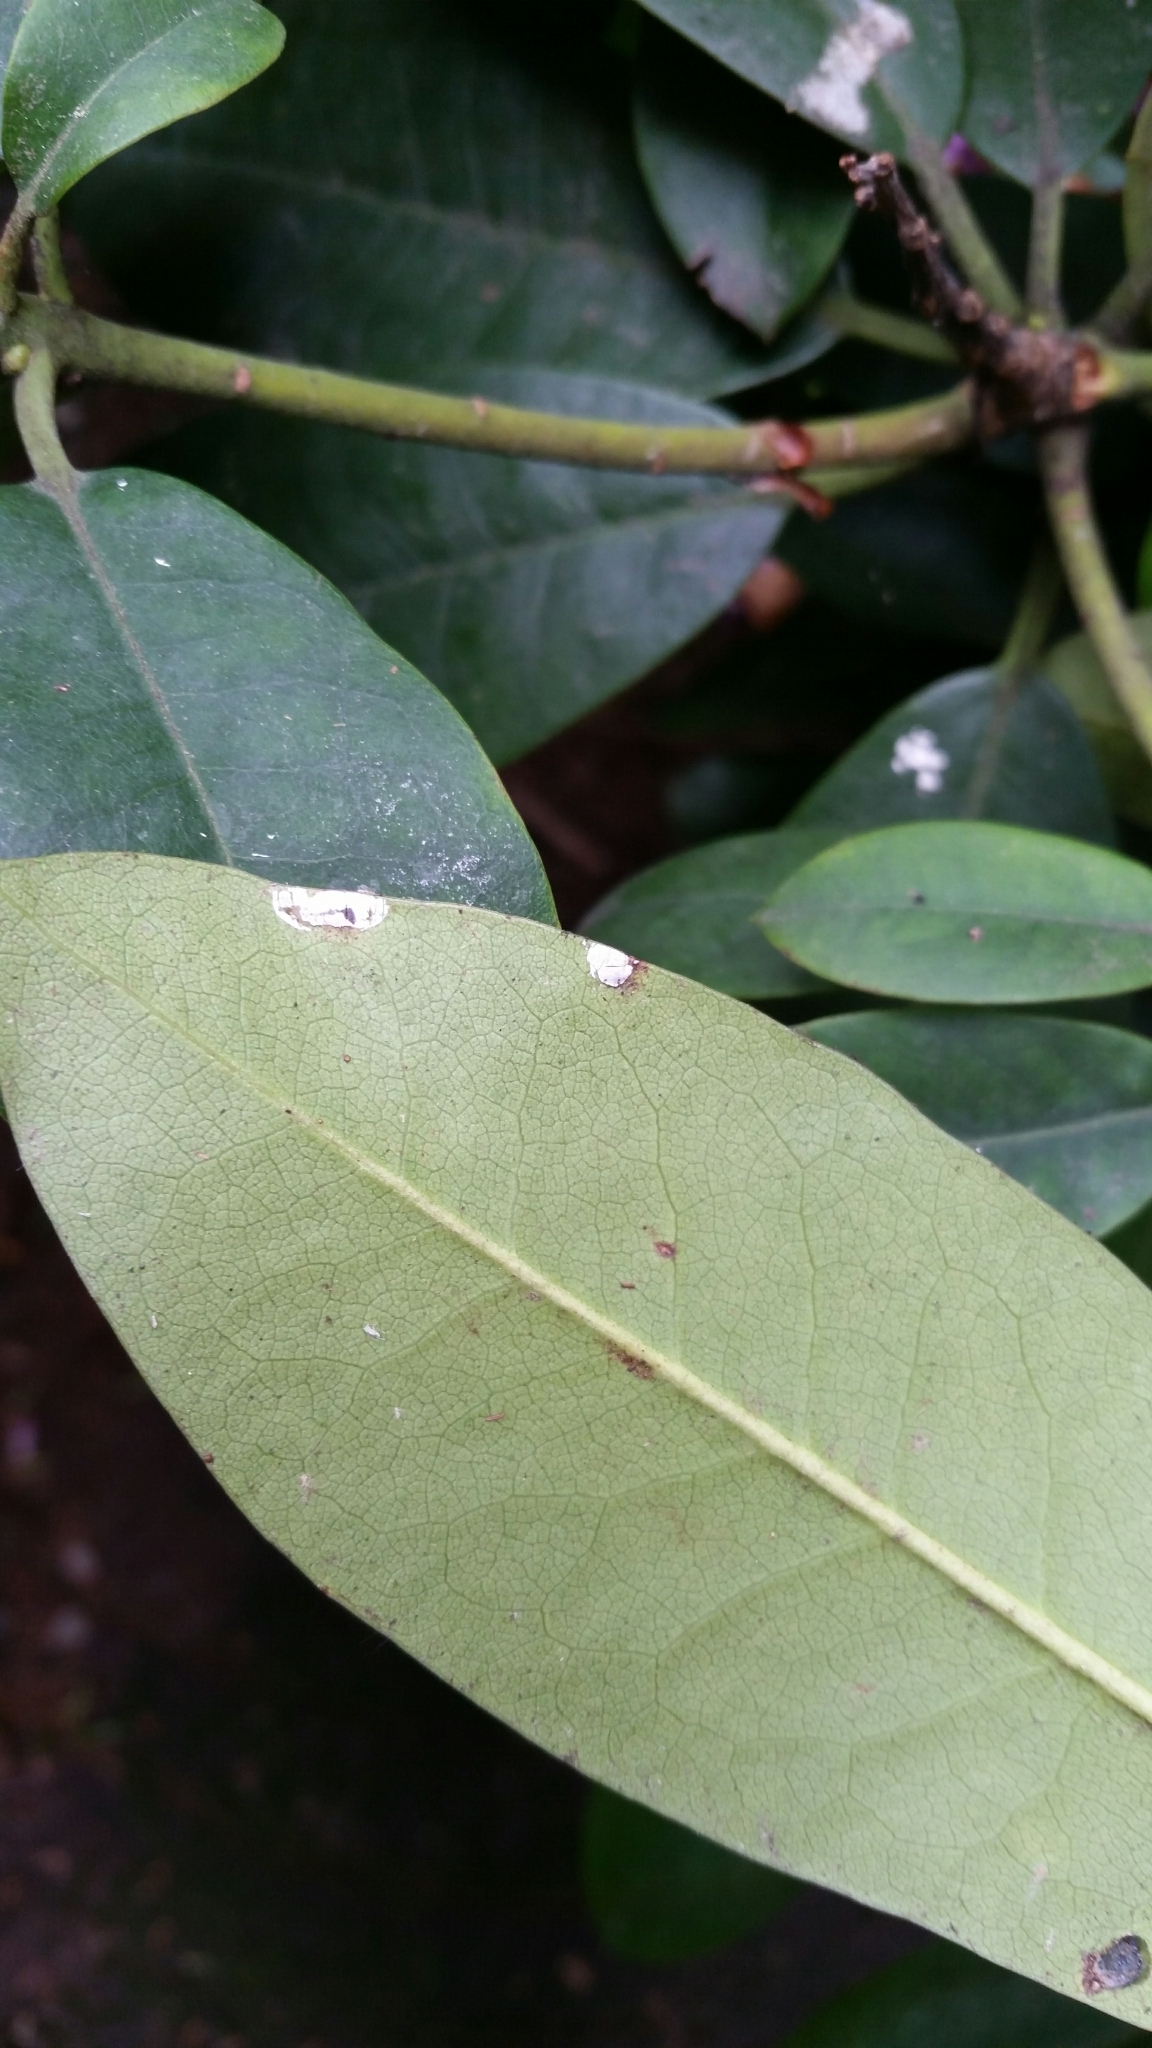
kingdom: Animalia
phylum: Arthropoda
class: Insecta
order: Hemiptera
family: Coccidae
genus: Pulvinaria
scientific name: Pulvinaria floccifera
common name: Cottony camellia scale
